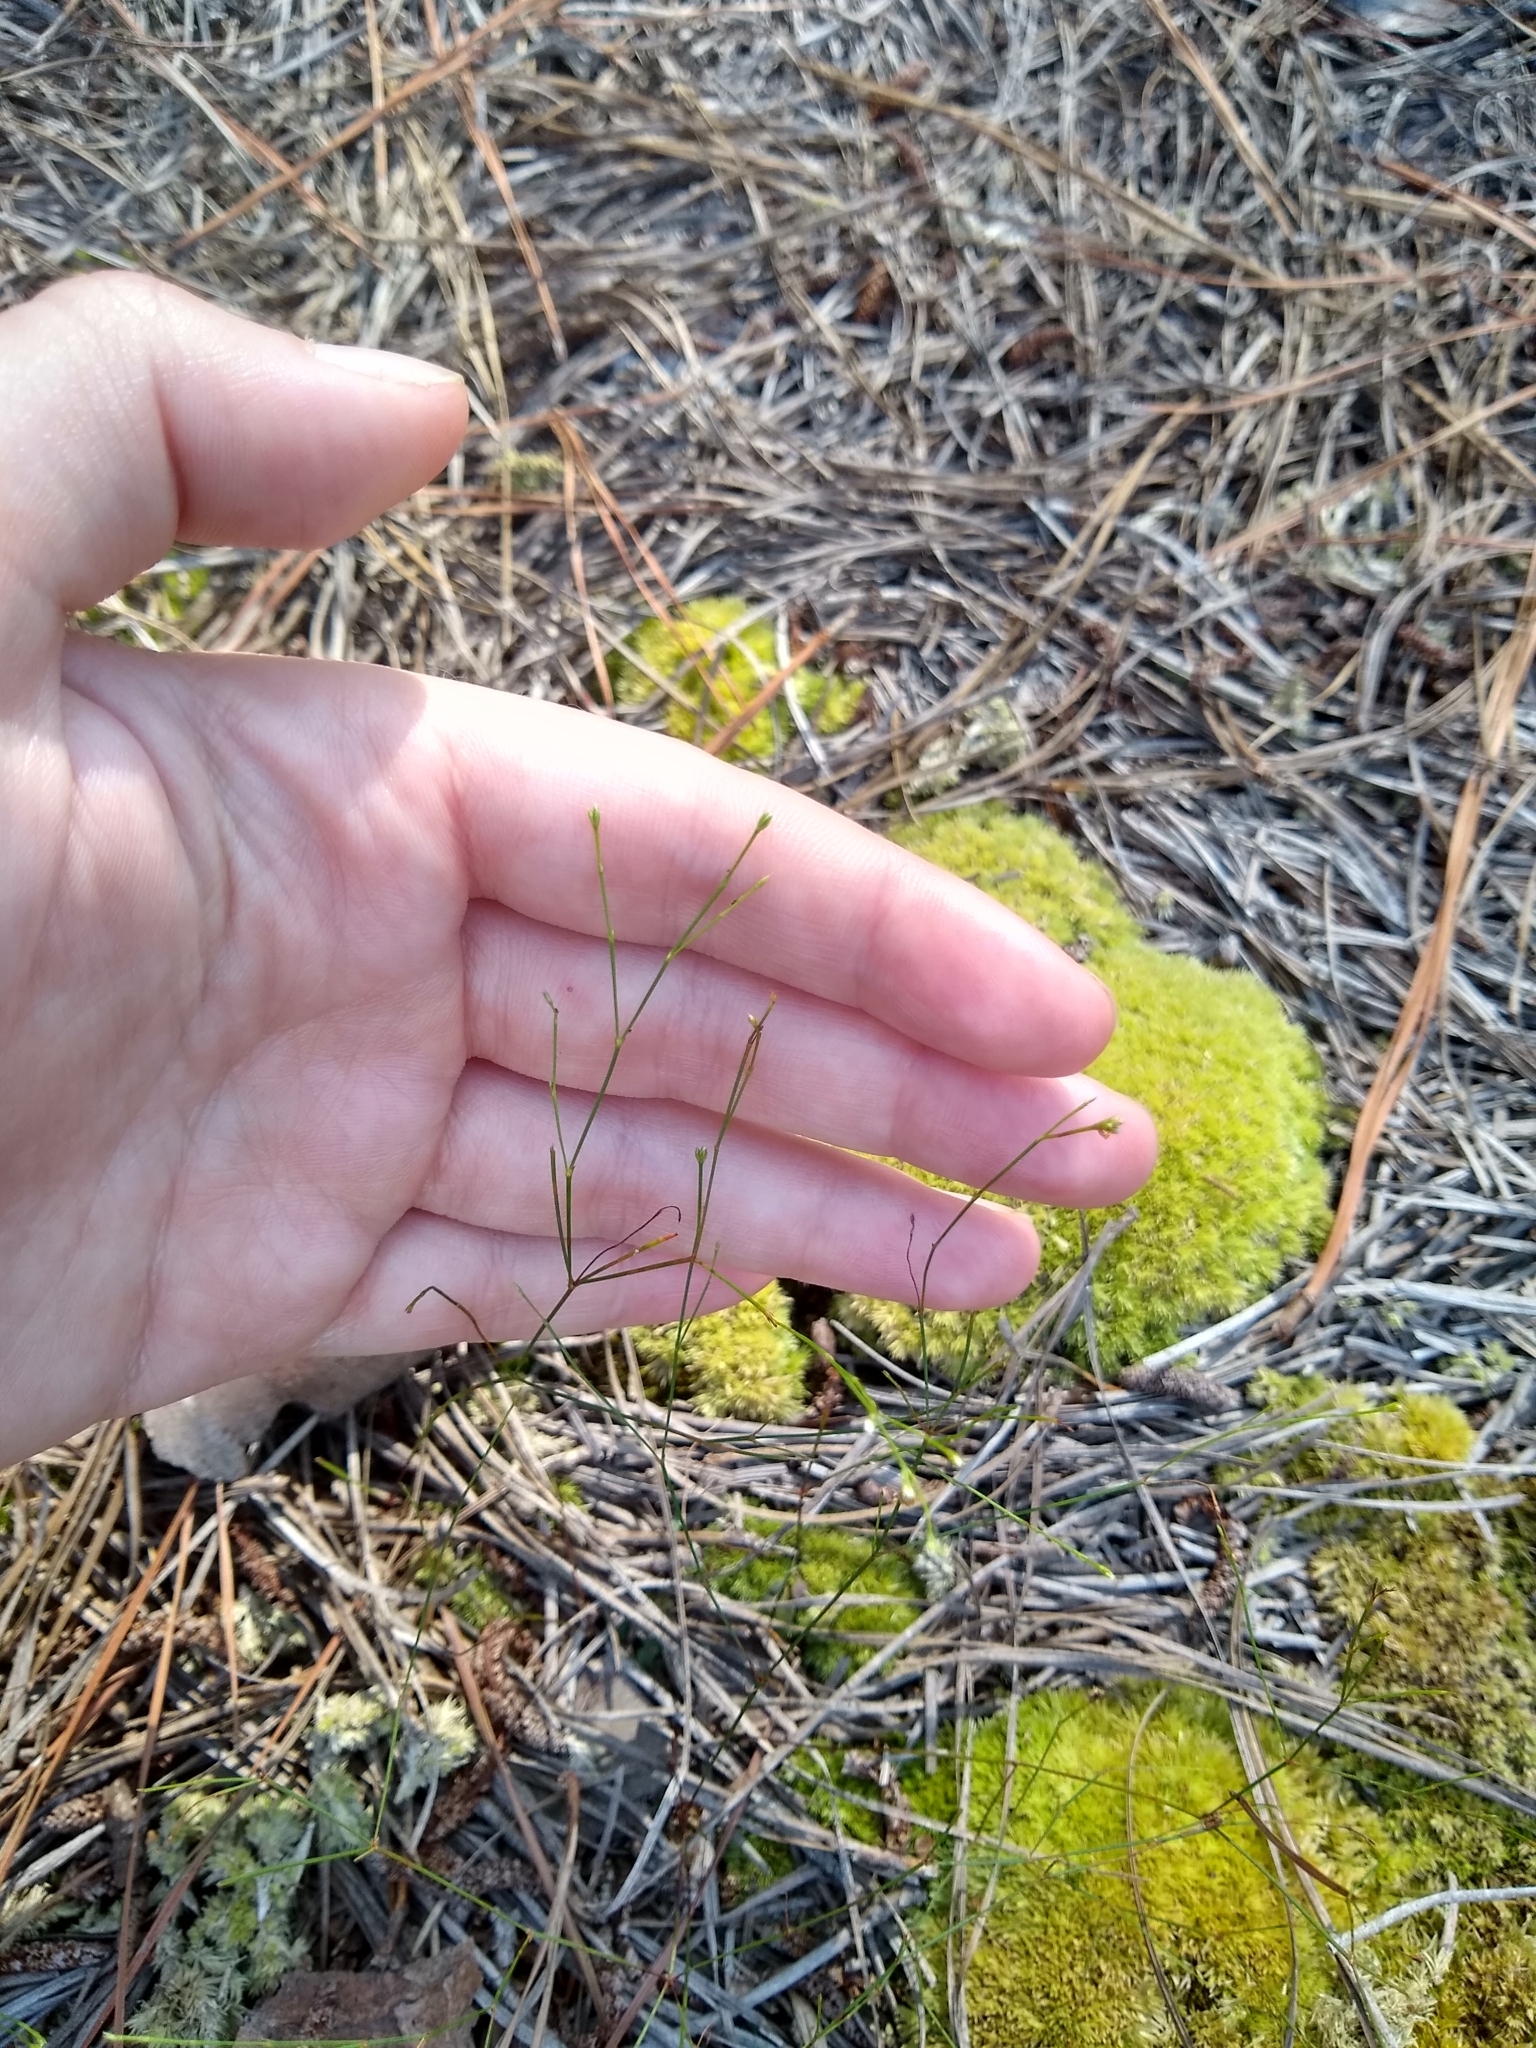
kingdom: Plantae
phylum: Tracheophyta
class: Magnoliopsida
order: Caryophyllales
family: Caryophyllaceae
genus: Stipulicida
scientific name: Stipulicida setacea
